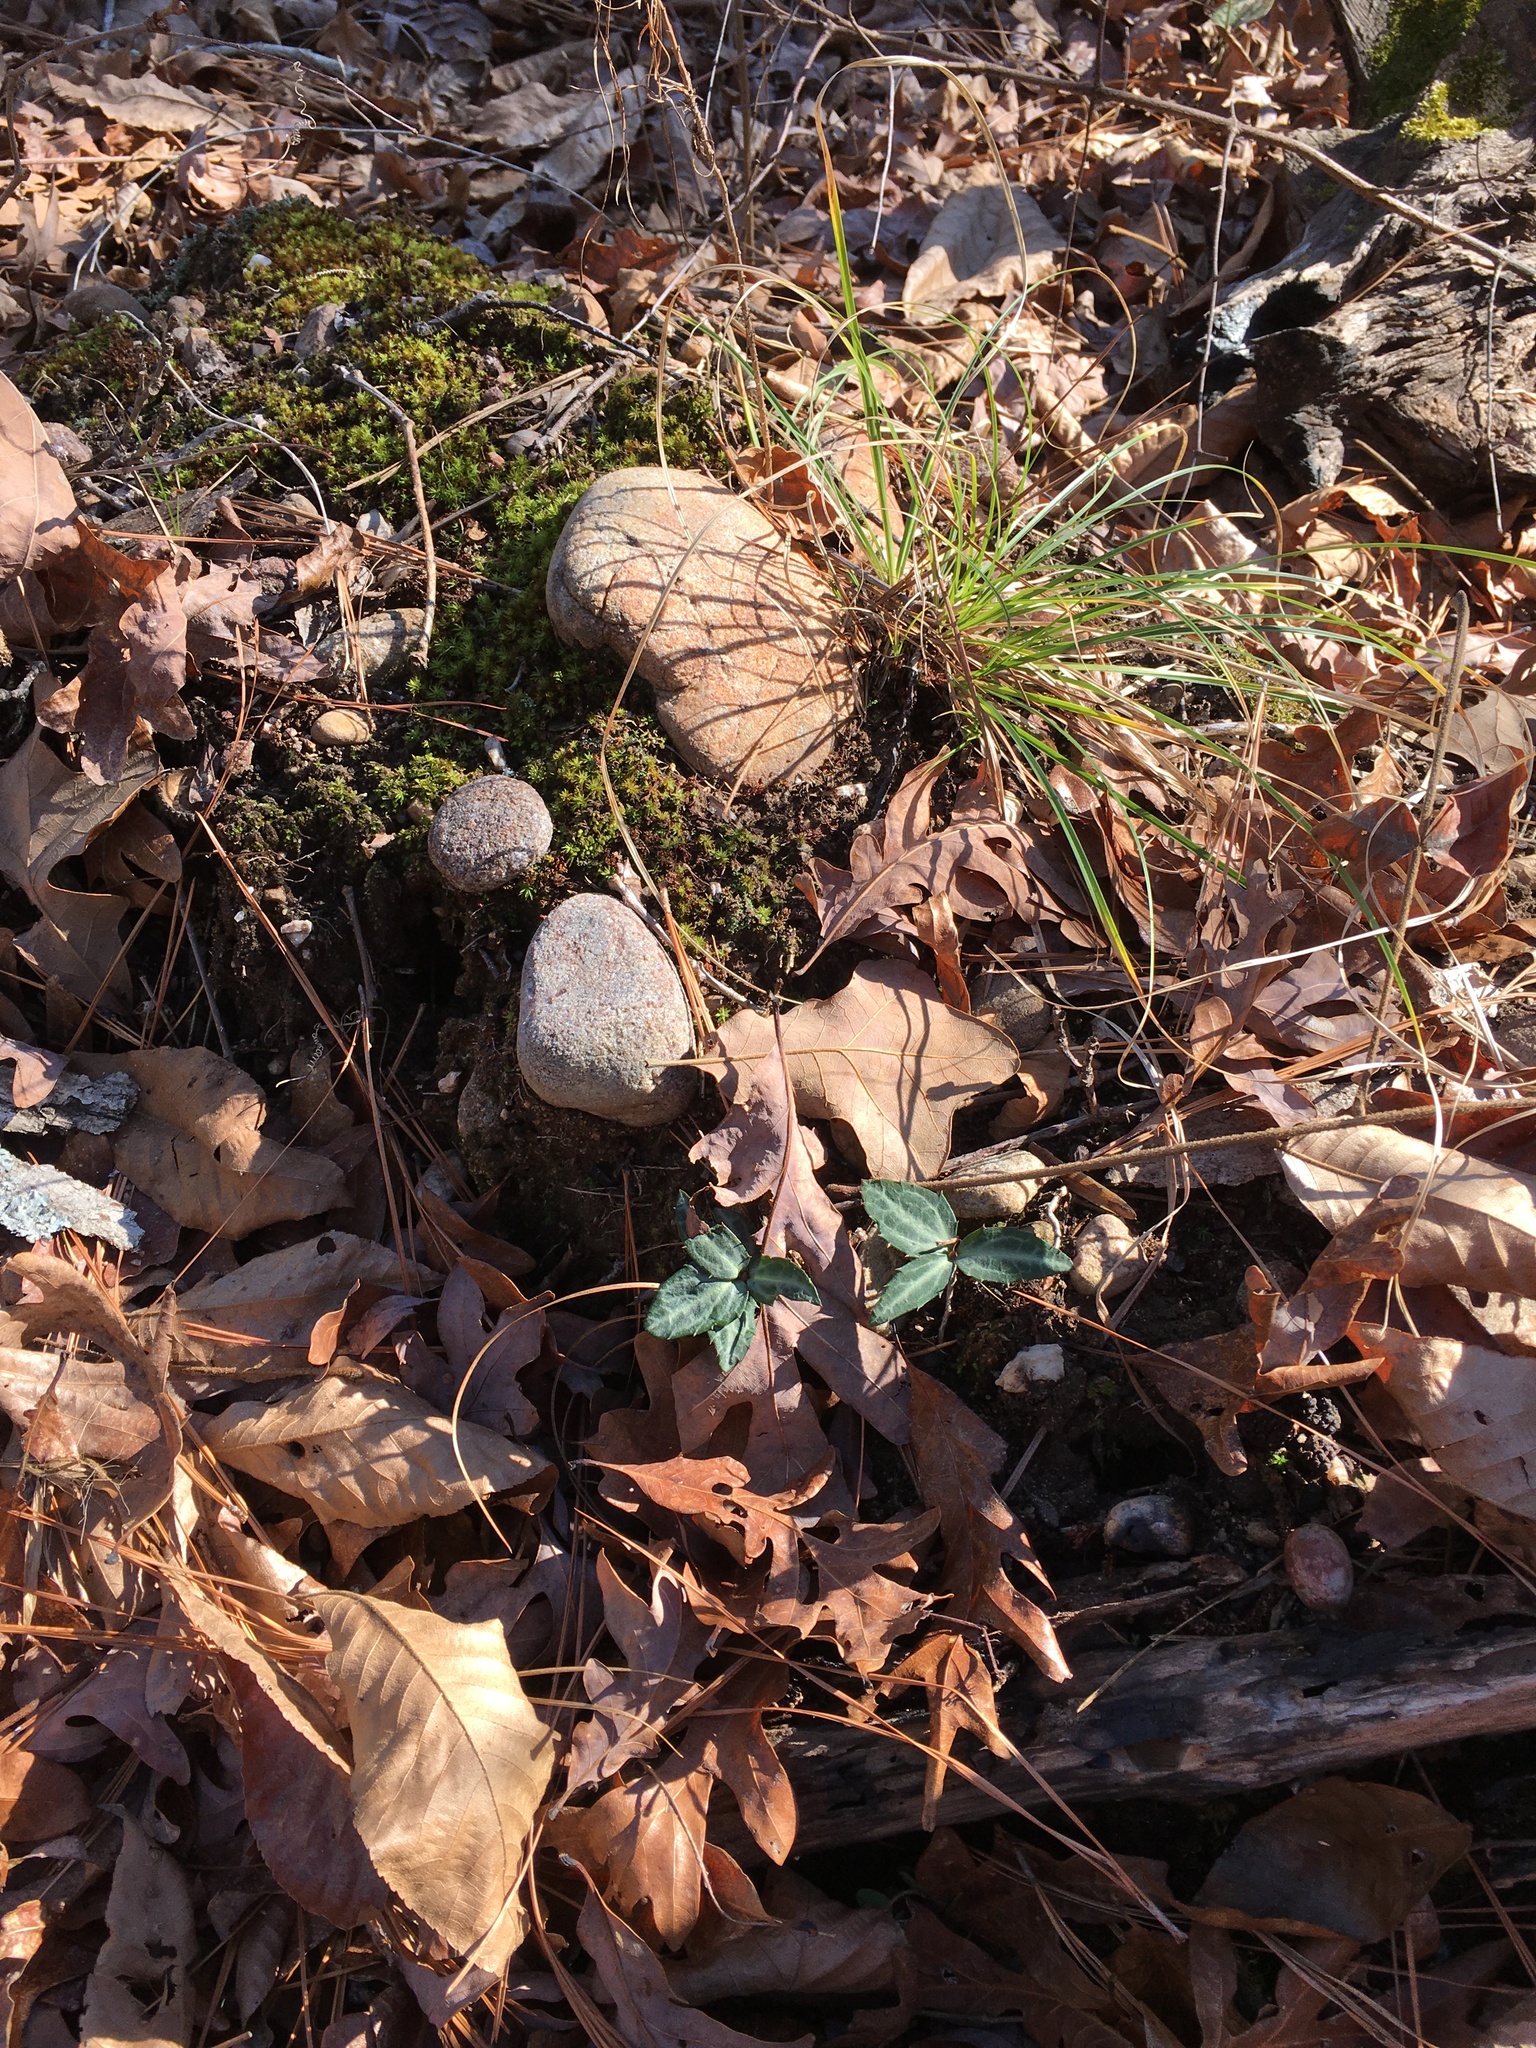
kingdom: Plantae
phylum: Tracheophyta
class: Magnoliopsida
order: Ericales
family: Ericaceae
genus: Chimaphila
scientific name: Chimaphila maculata
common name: Spotted pipsissewa
